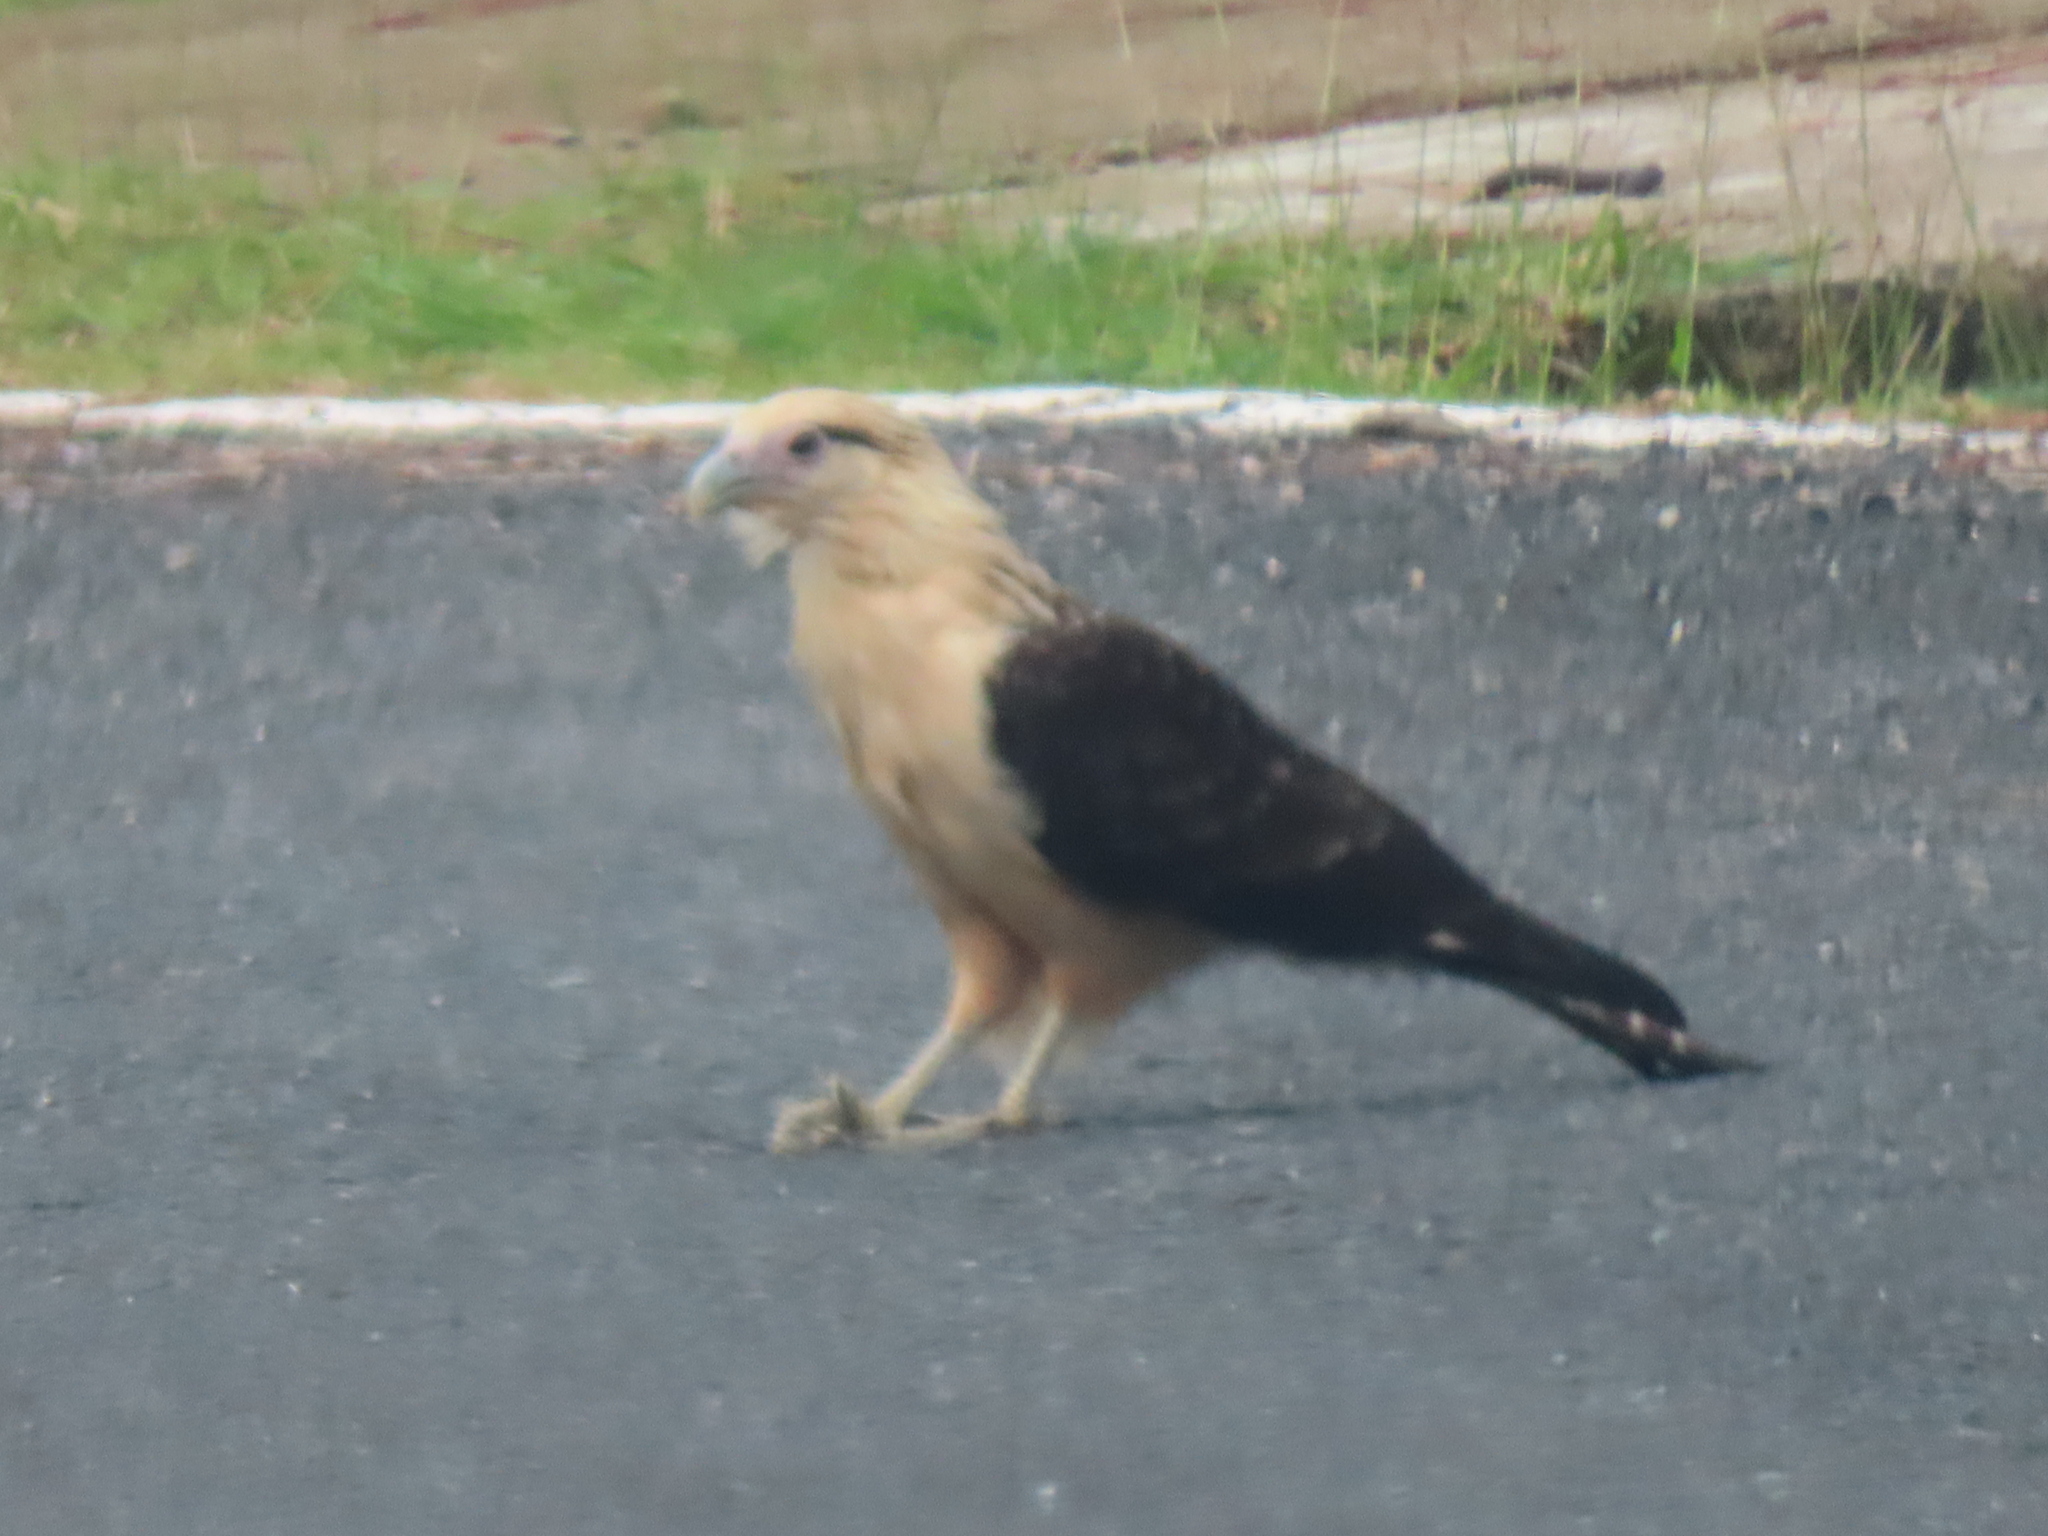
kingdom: Animalia
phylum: Chordata
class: Aves
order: Falconiformes
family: Falconidae
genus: Daptrius
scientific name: Daptrius
